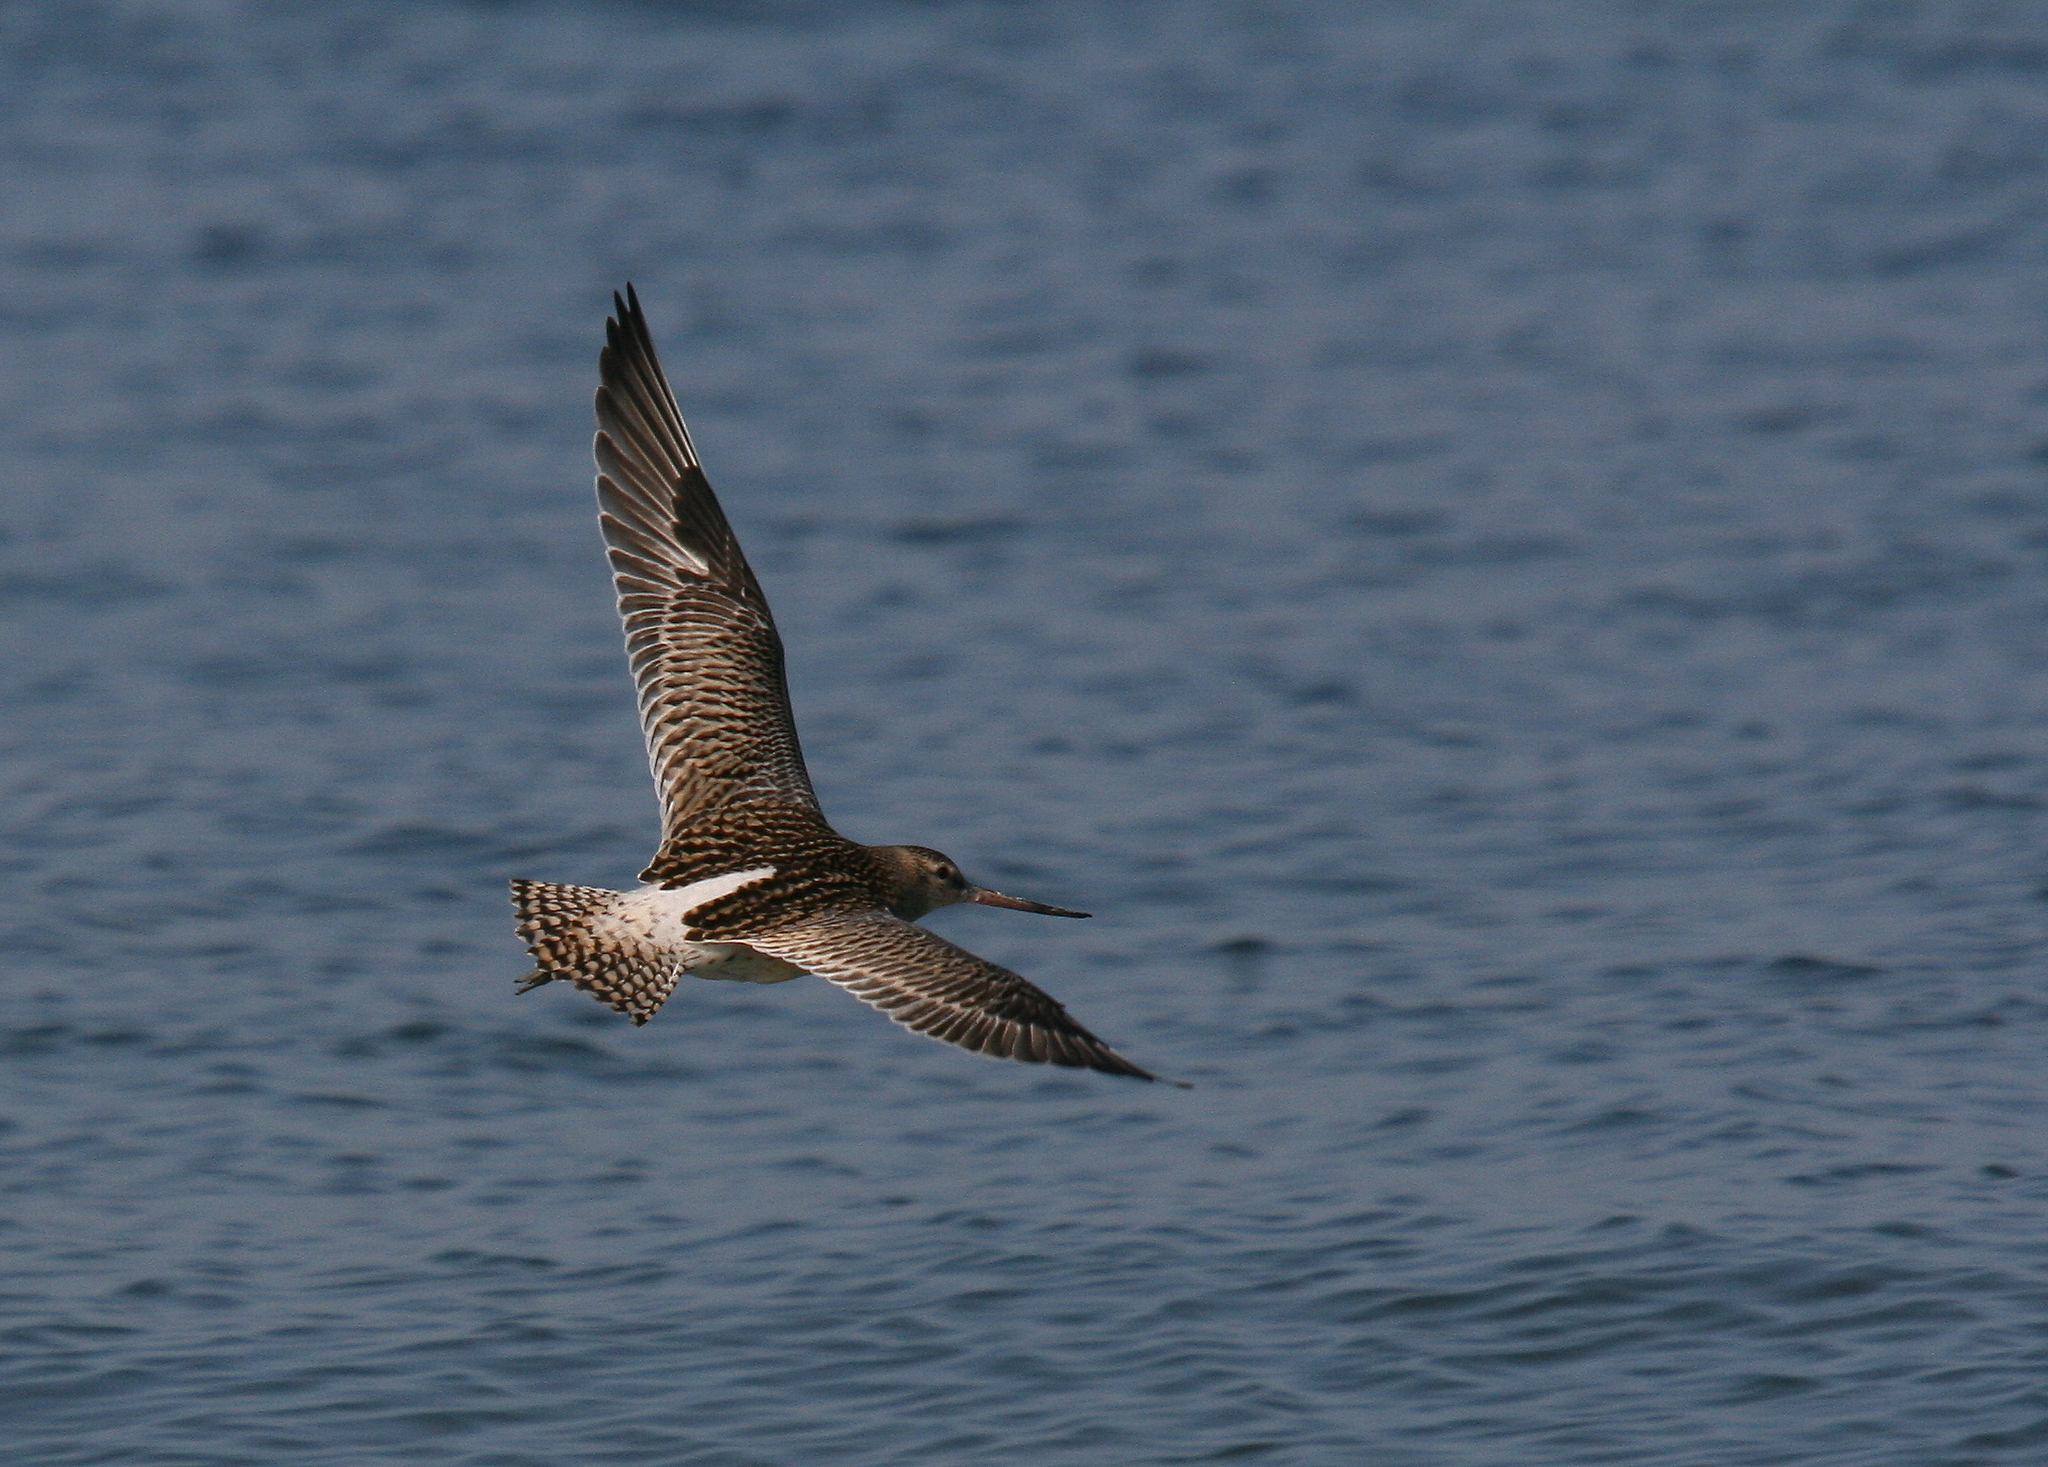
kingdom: Animalia
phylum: Chordata
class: Aves
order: Charadriiformes
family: Scolopacidae
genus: Limosa
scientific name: Limosa lapponica
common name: Bar-tailed godwit
